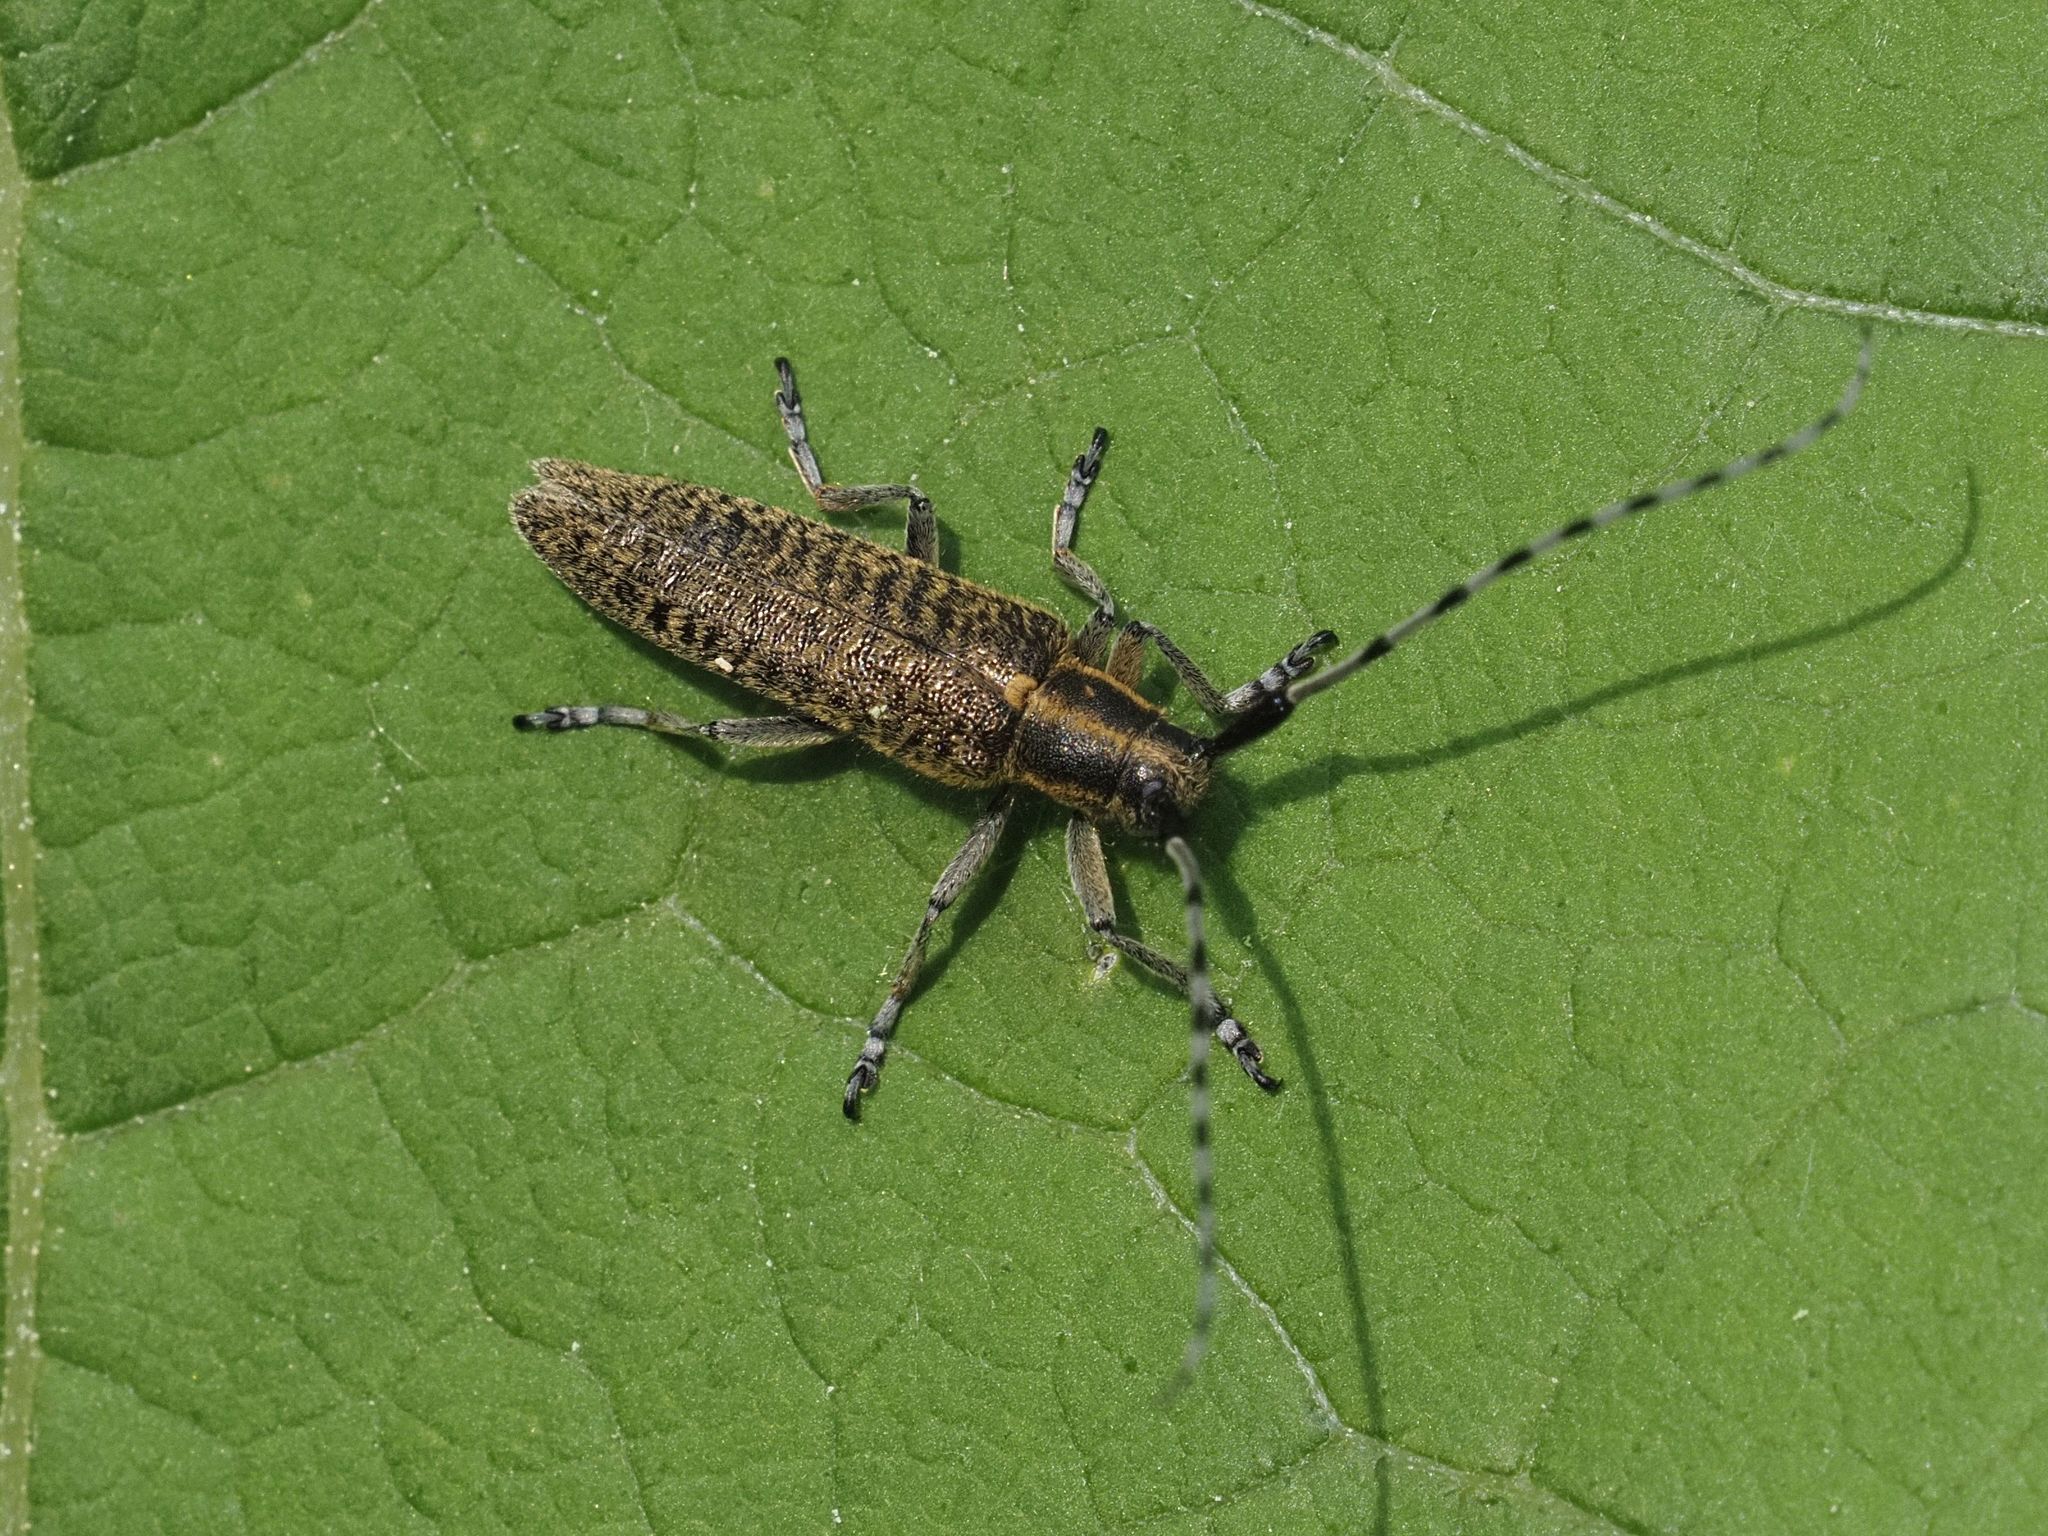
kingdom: Animalia
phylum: Arthropoda
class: Insecta
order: Coleoptera
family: Cerambycidae
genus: Agapanthia
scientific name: Agapanthia villosoviridescens
